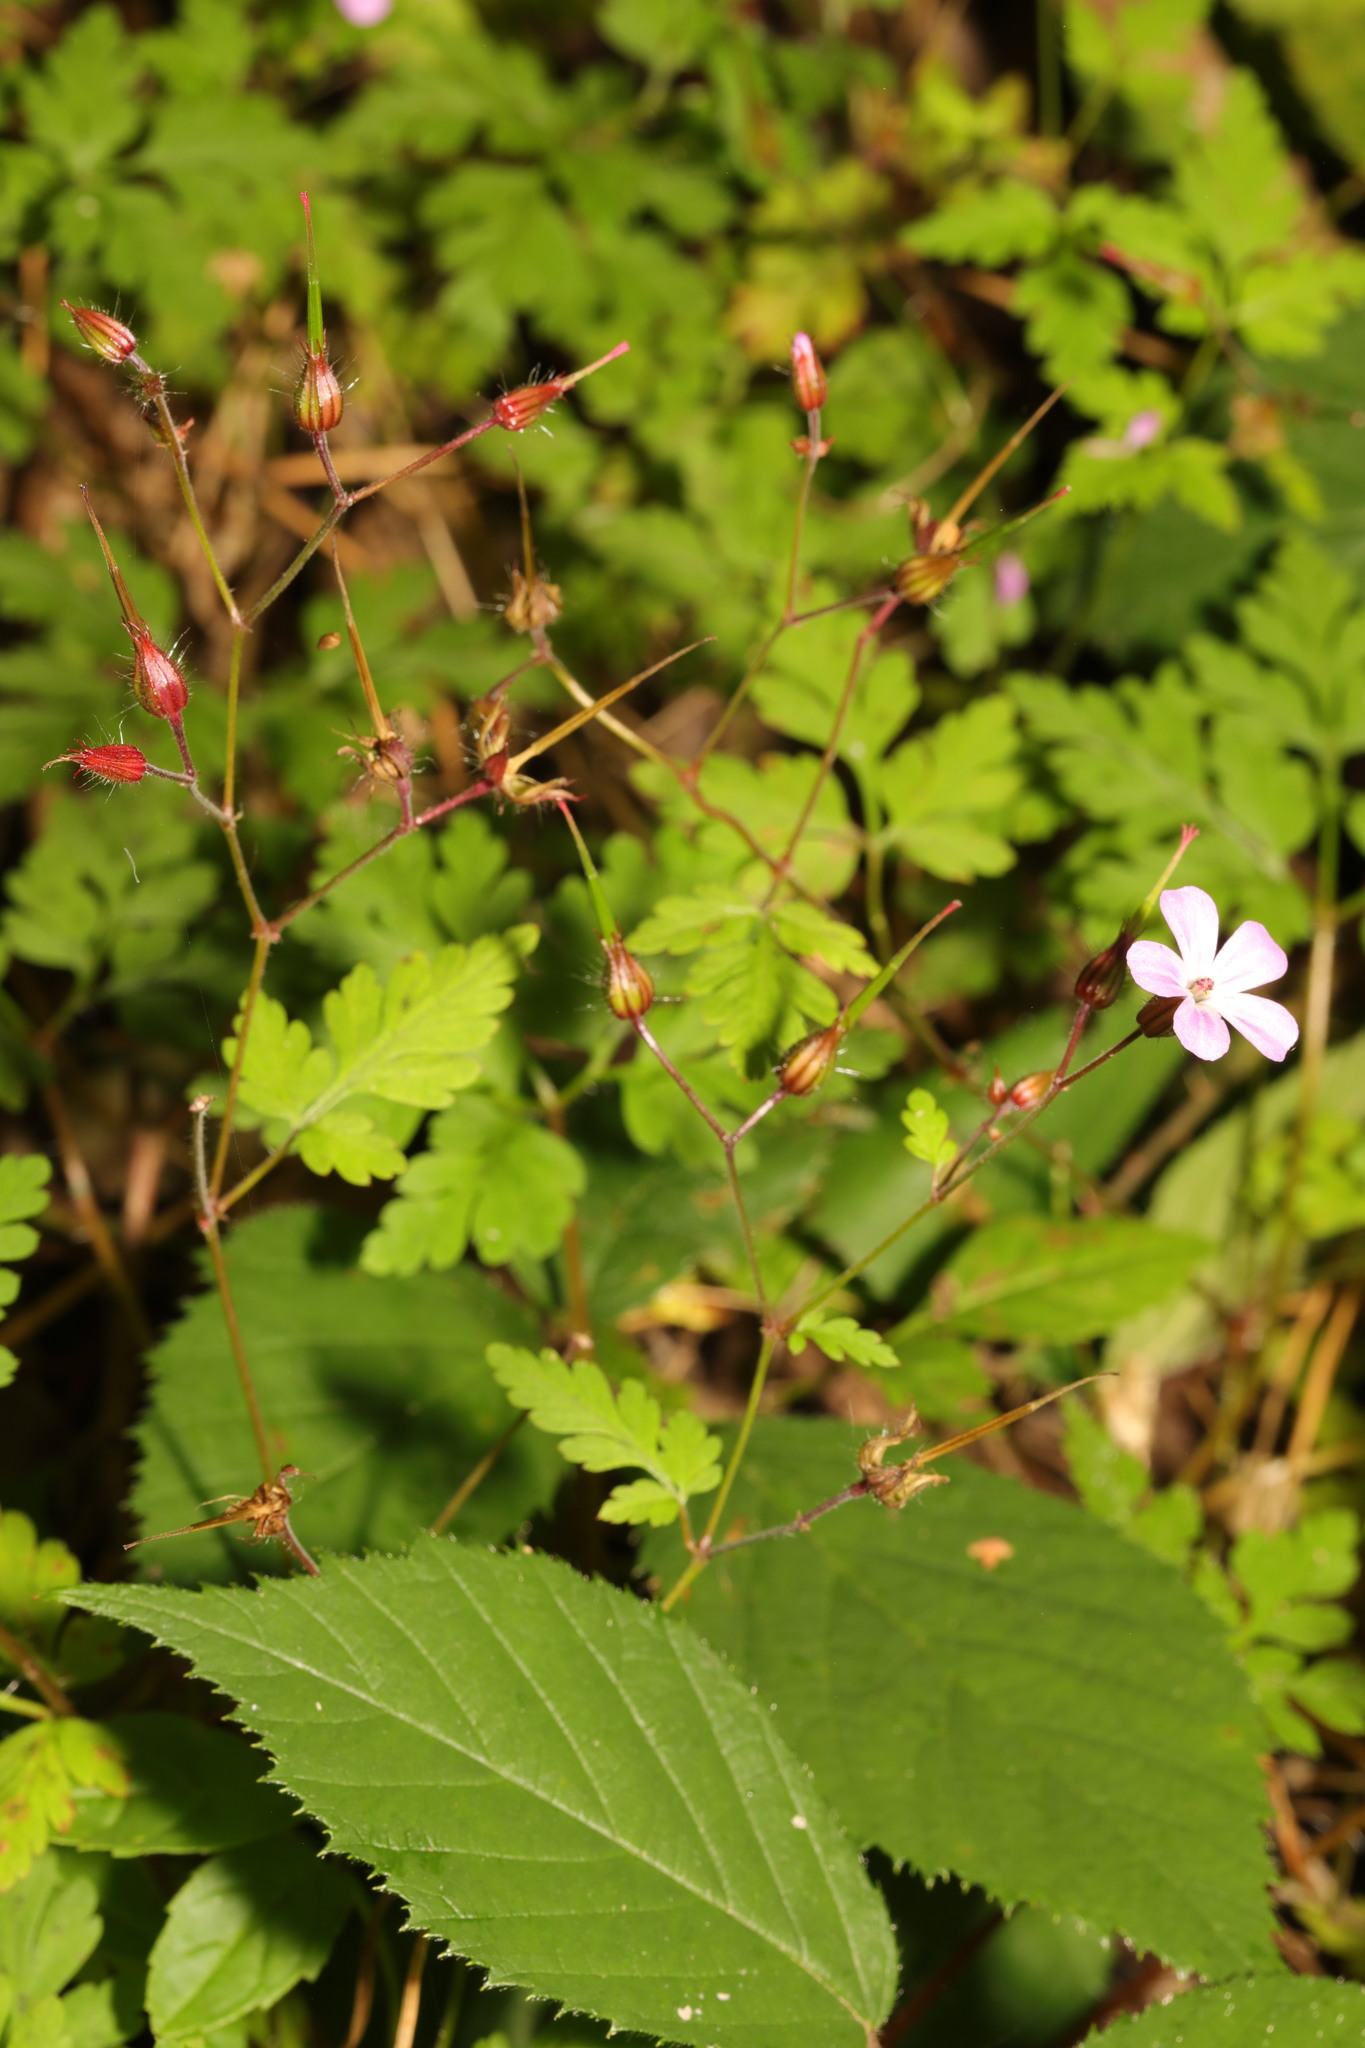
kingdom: Plantae
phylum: Tracheophyta
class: Magnoliopsida
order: Geraniales
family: Geraniaceae
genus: Geranium
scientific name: Geranium robertianum
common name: Herb-robert
